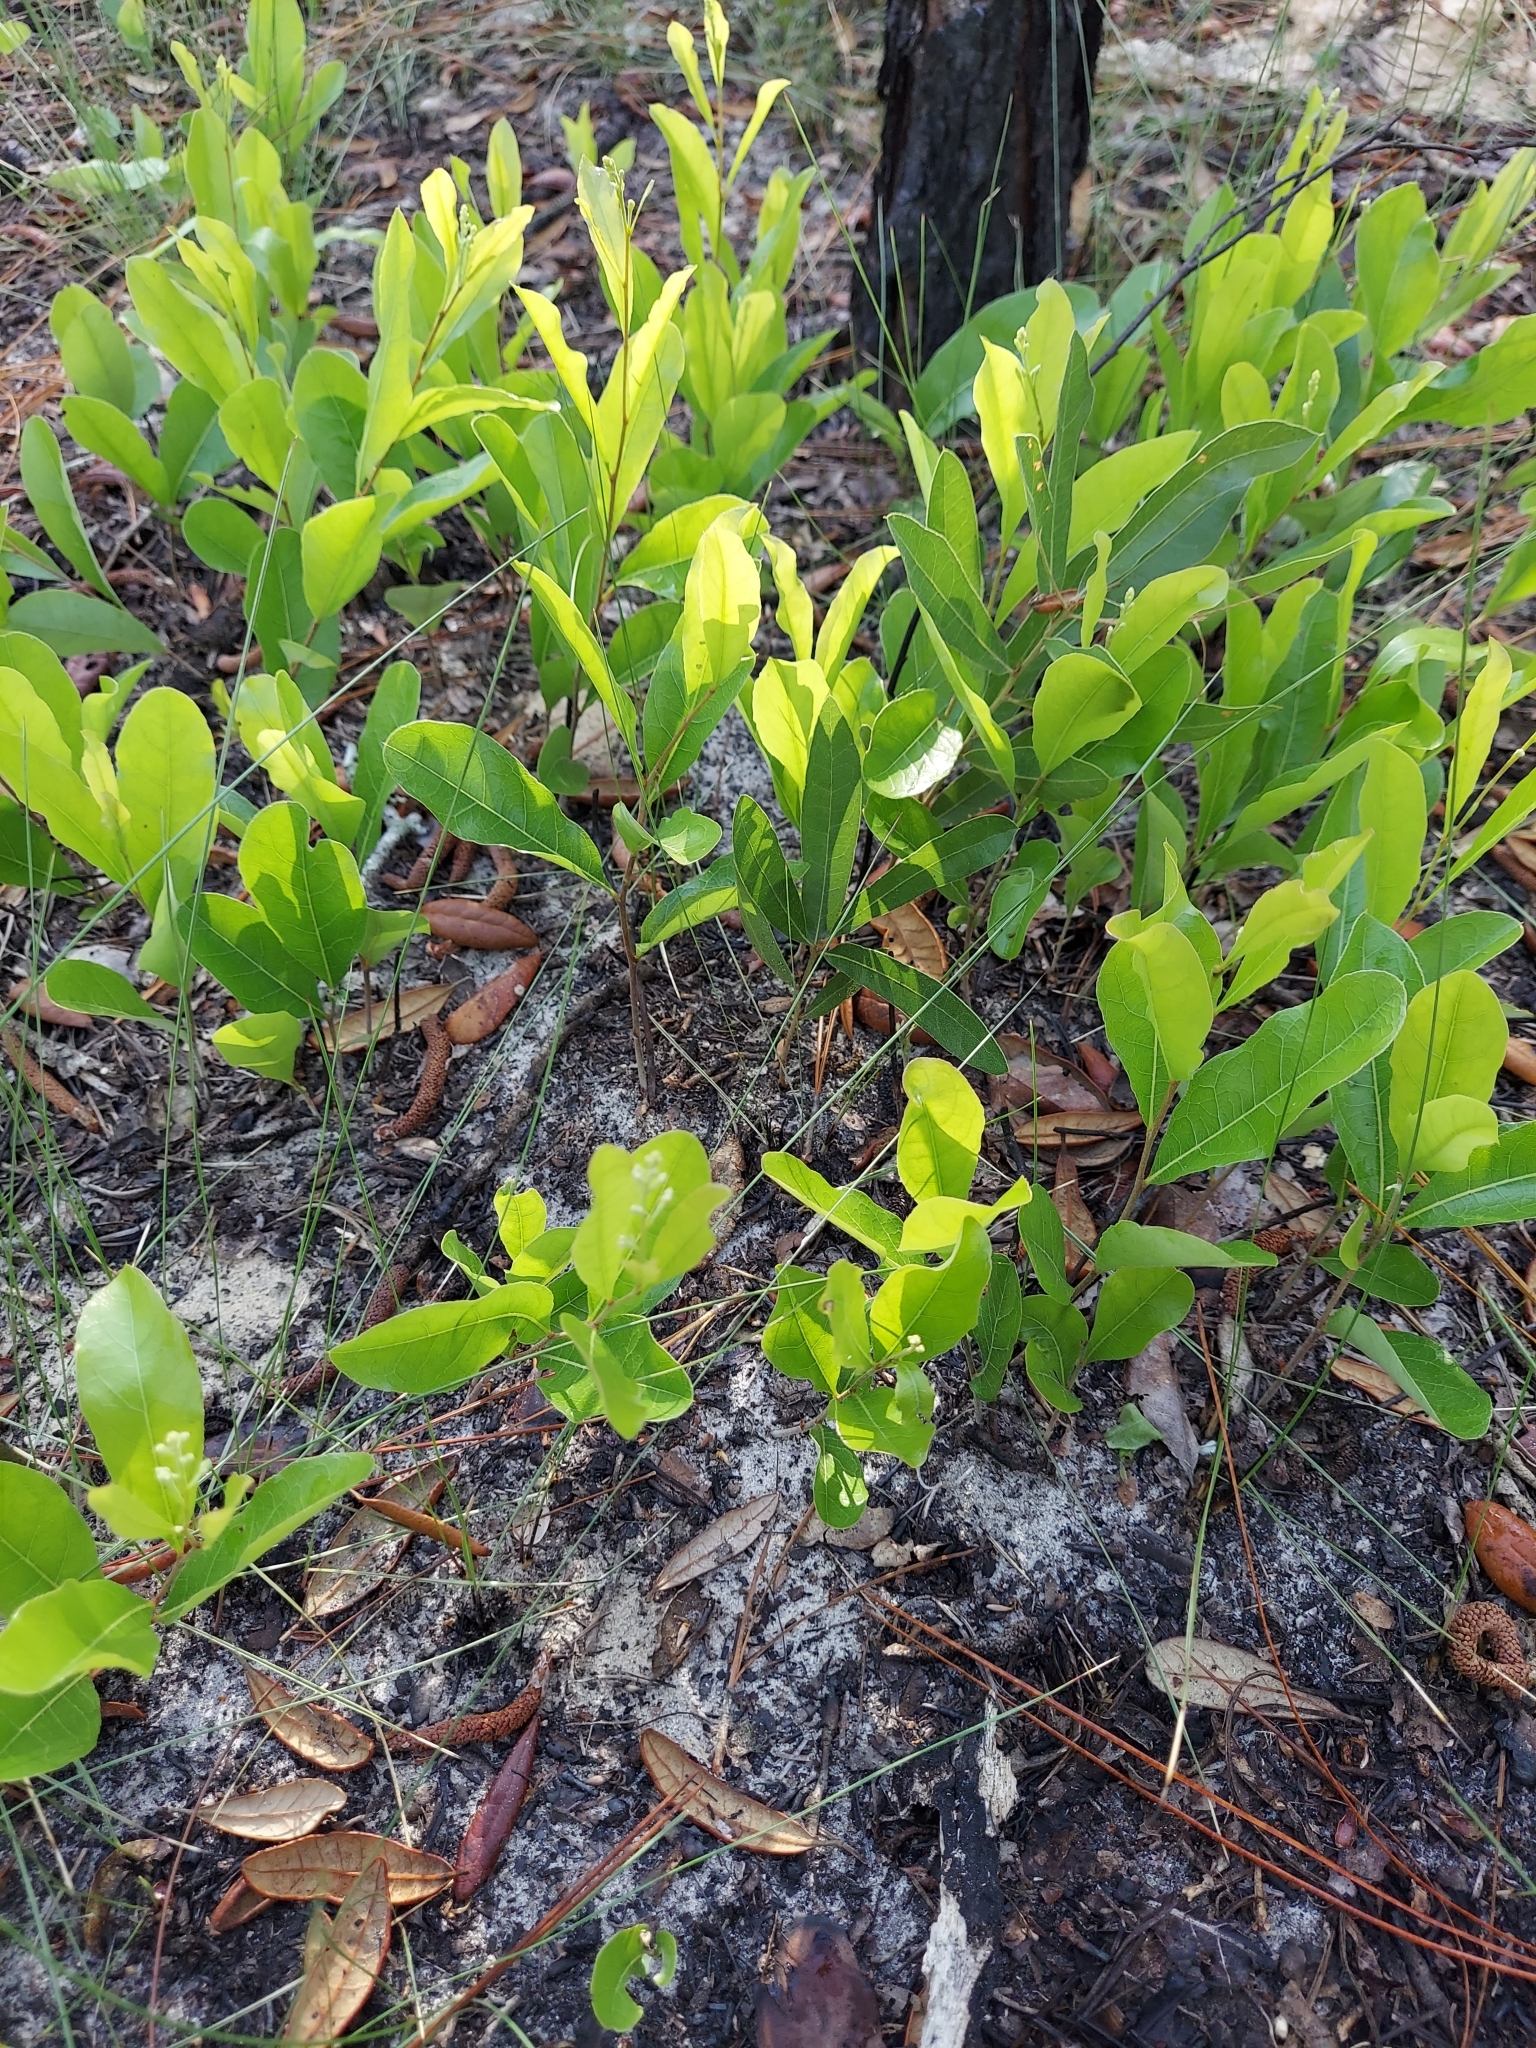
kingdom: Plantae
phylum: Tracheophyta
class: Magnoliopsida
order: Malpighiales
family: Chrysobalanaceae
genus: Geobalanus
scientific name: Geobalanus oblongifolius
